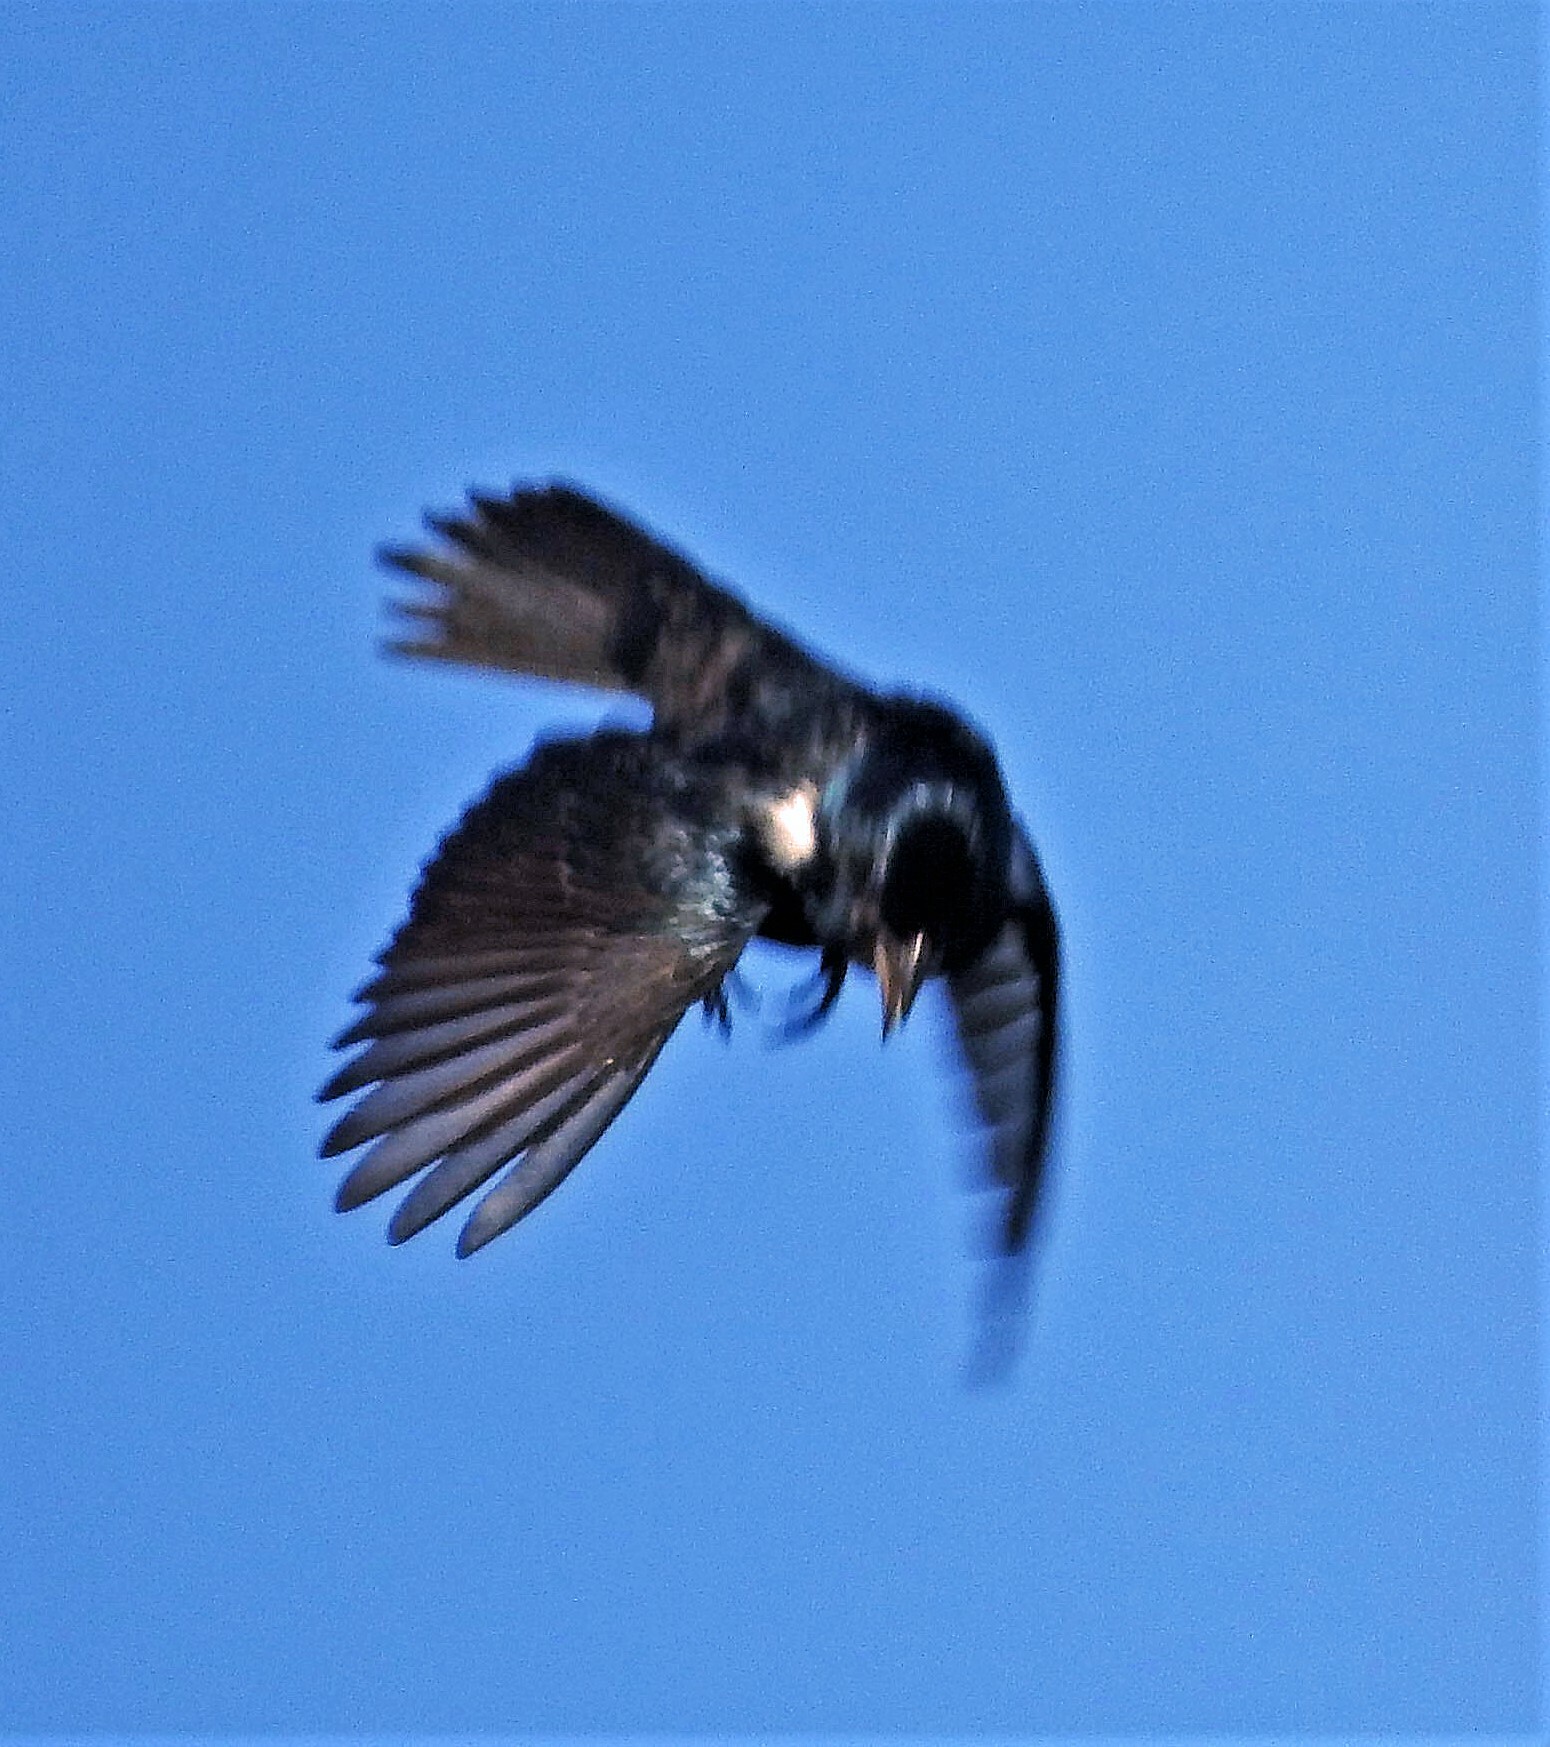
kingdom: Animalia
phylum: Chordata
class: Aves
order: Passeriformes
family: Thraupidae
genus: Volatinia
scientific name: Volatinia jacarina
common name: Blue-black grassquit
